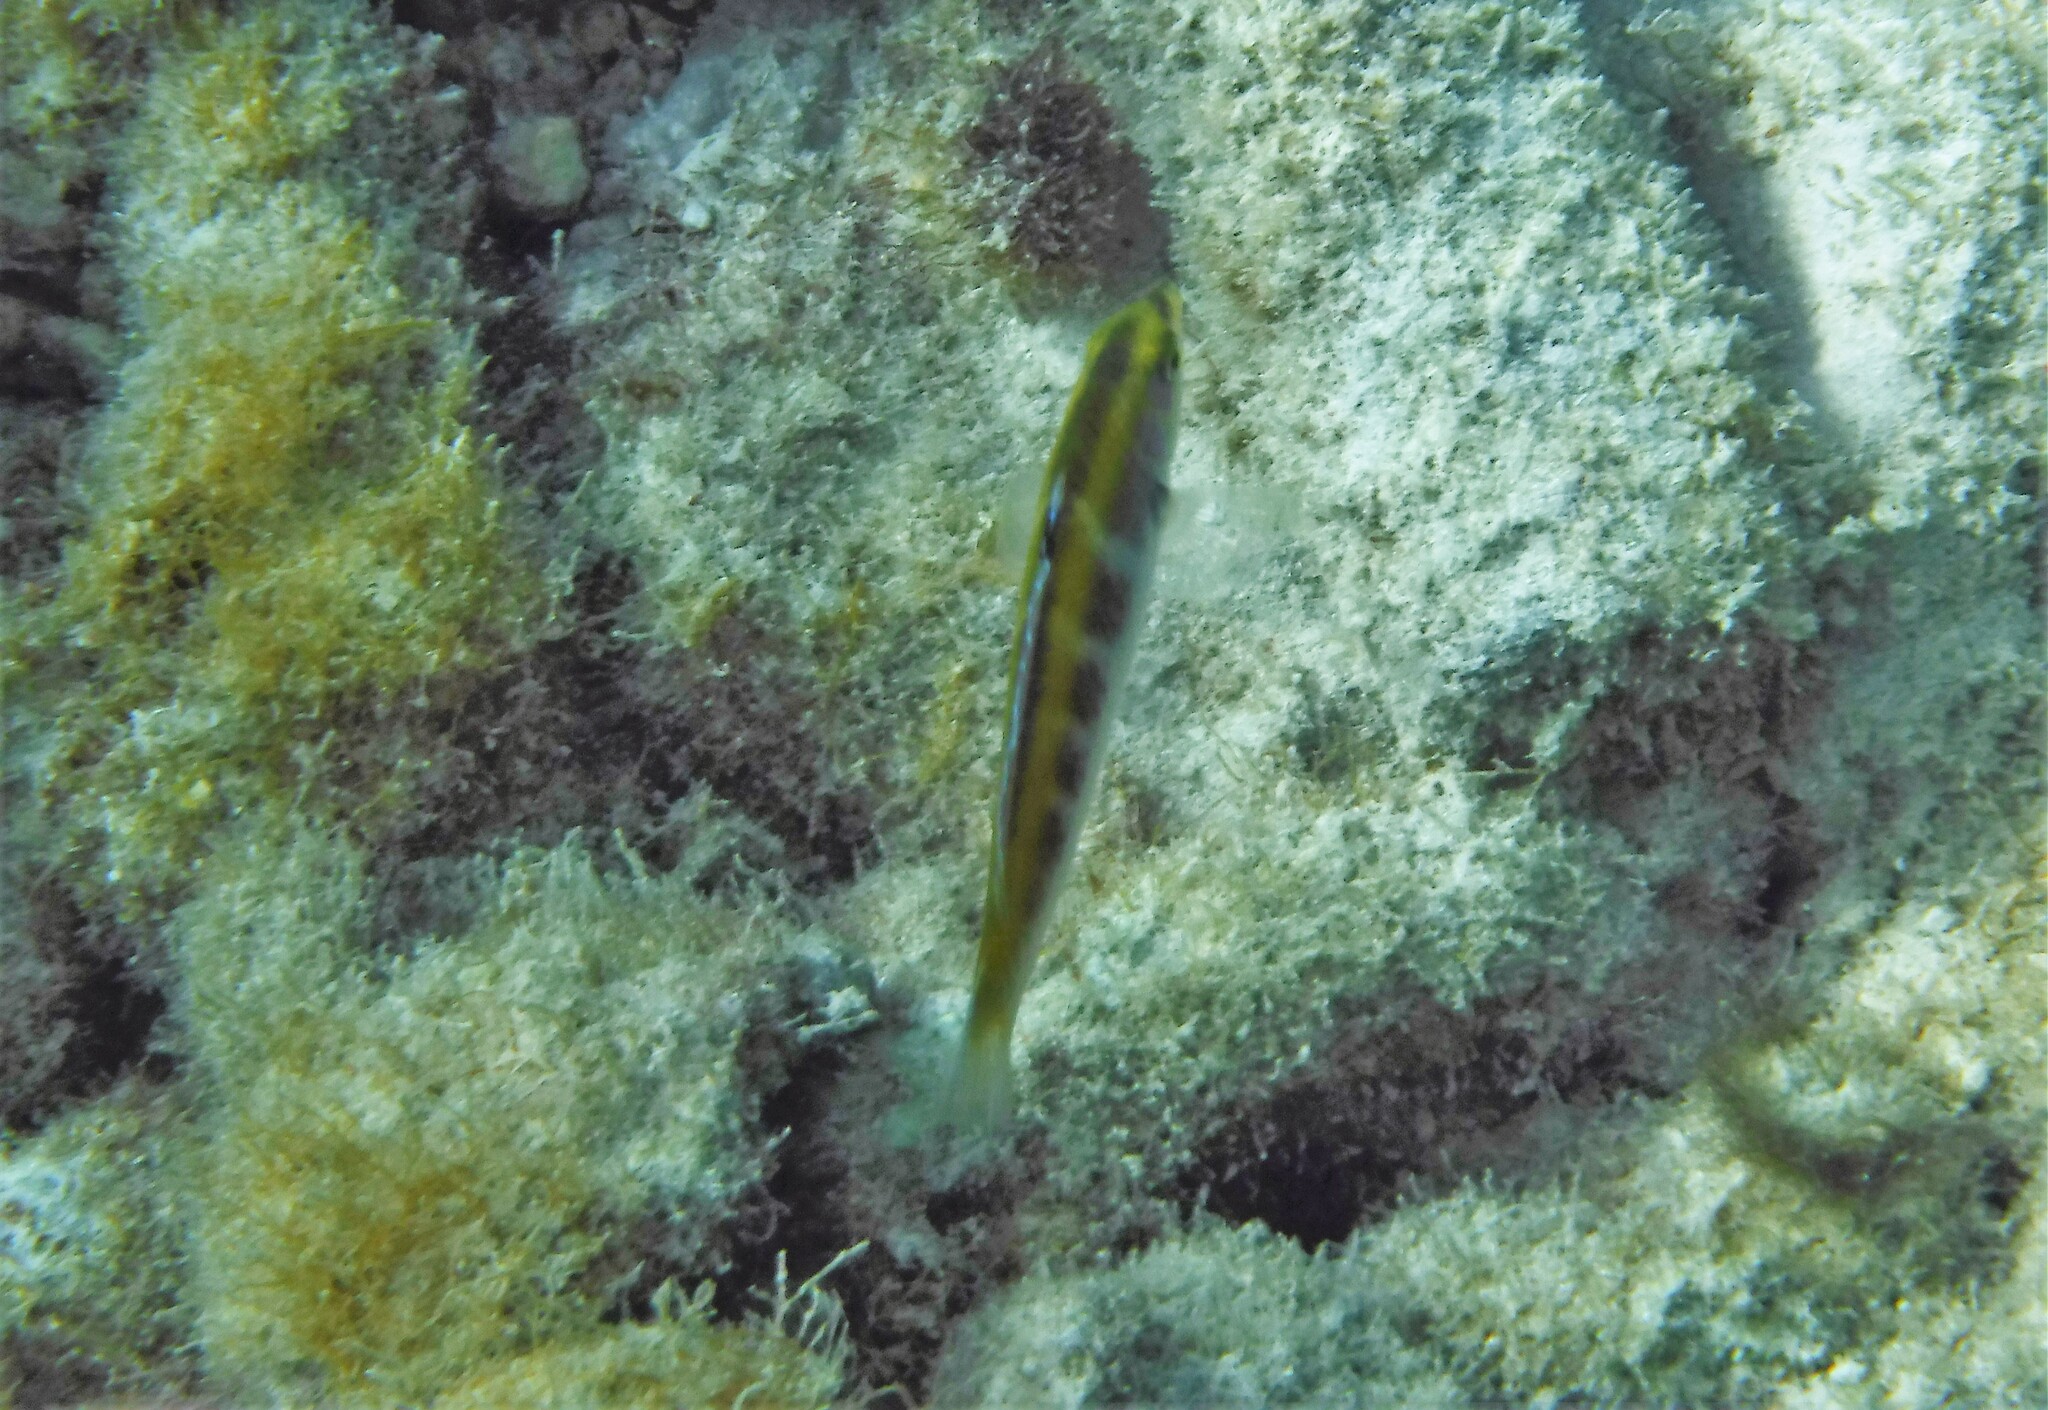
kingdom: Animalia
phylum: Chordata
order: Perciformes
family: Labridae
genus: Thalassoma
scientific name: Thalassoma bifasciatum
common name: Bluehead wrasse
